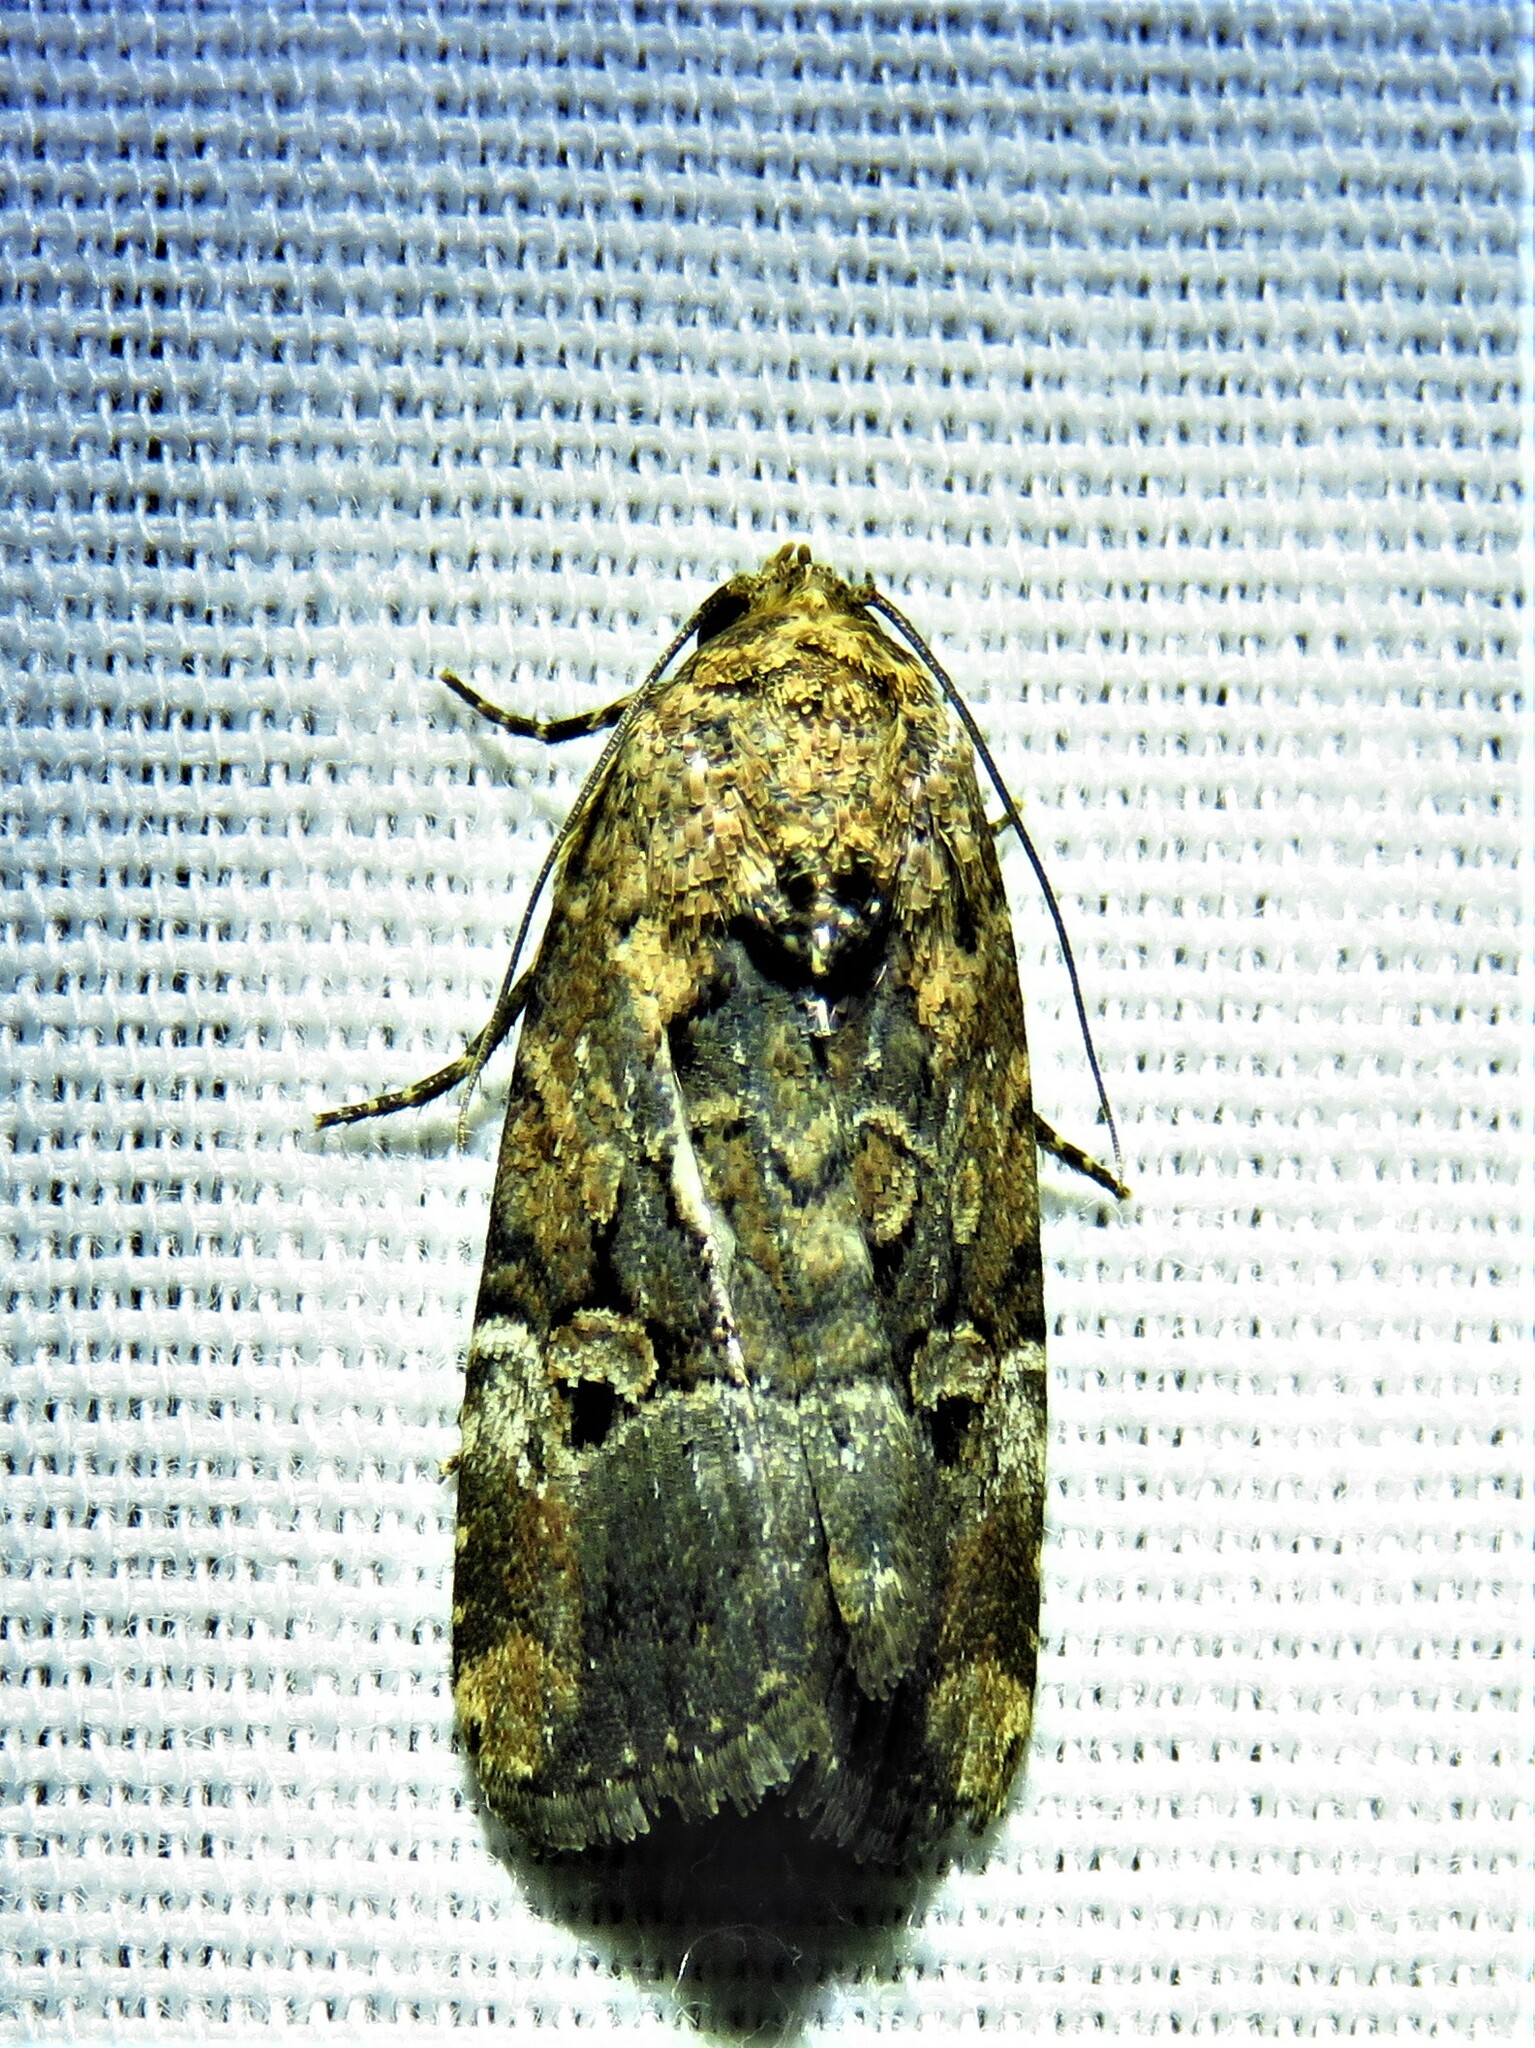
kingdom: Animalia
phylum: Arthropoda
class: Insecta
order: Lepidoptera
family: Noctuidae
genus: Elaphria
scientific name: Elaphria chalcedonia
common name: Chalcedony midget
